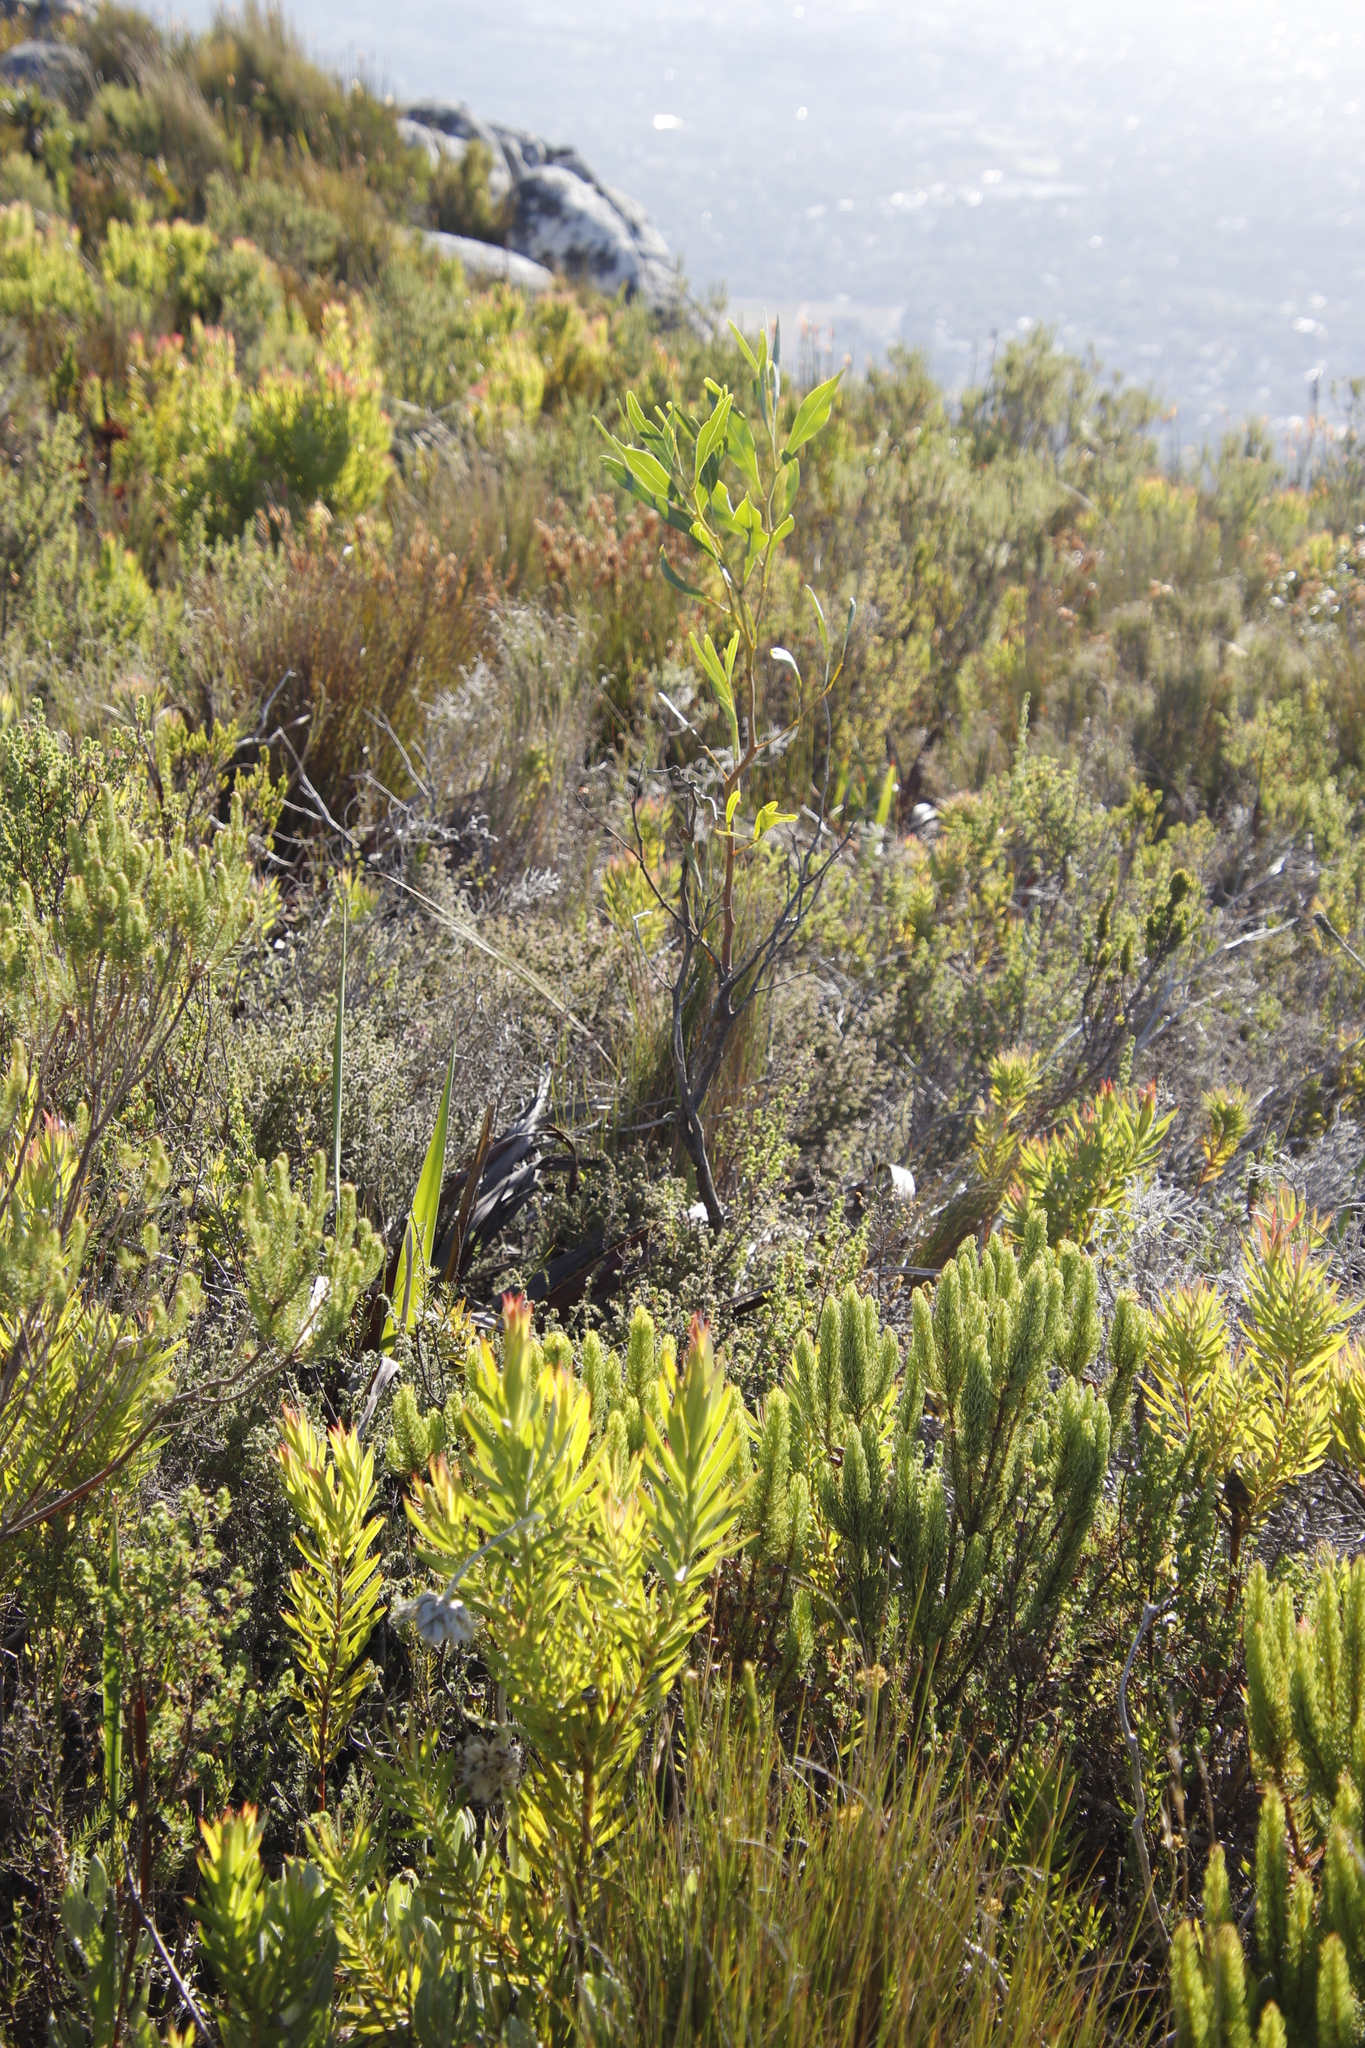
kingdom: Plantae
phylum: Tracheophyta
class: Magnoliopsida
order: Fabales
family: Fabaceae
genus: Acacia
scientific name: Acacia saligna
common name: Orange wattle
